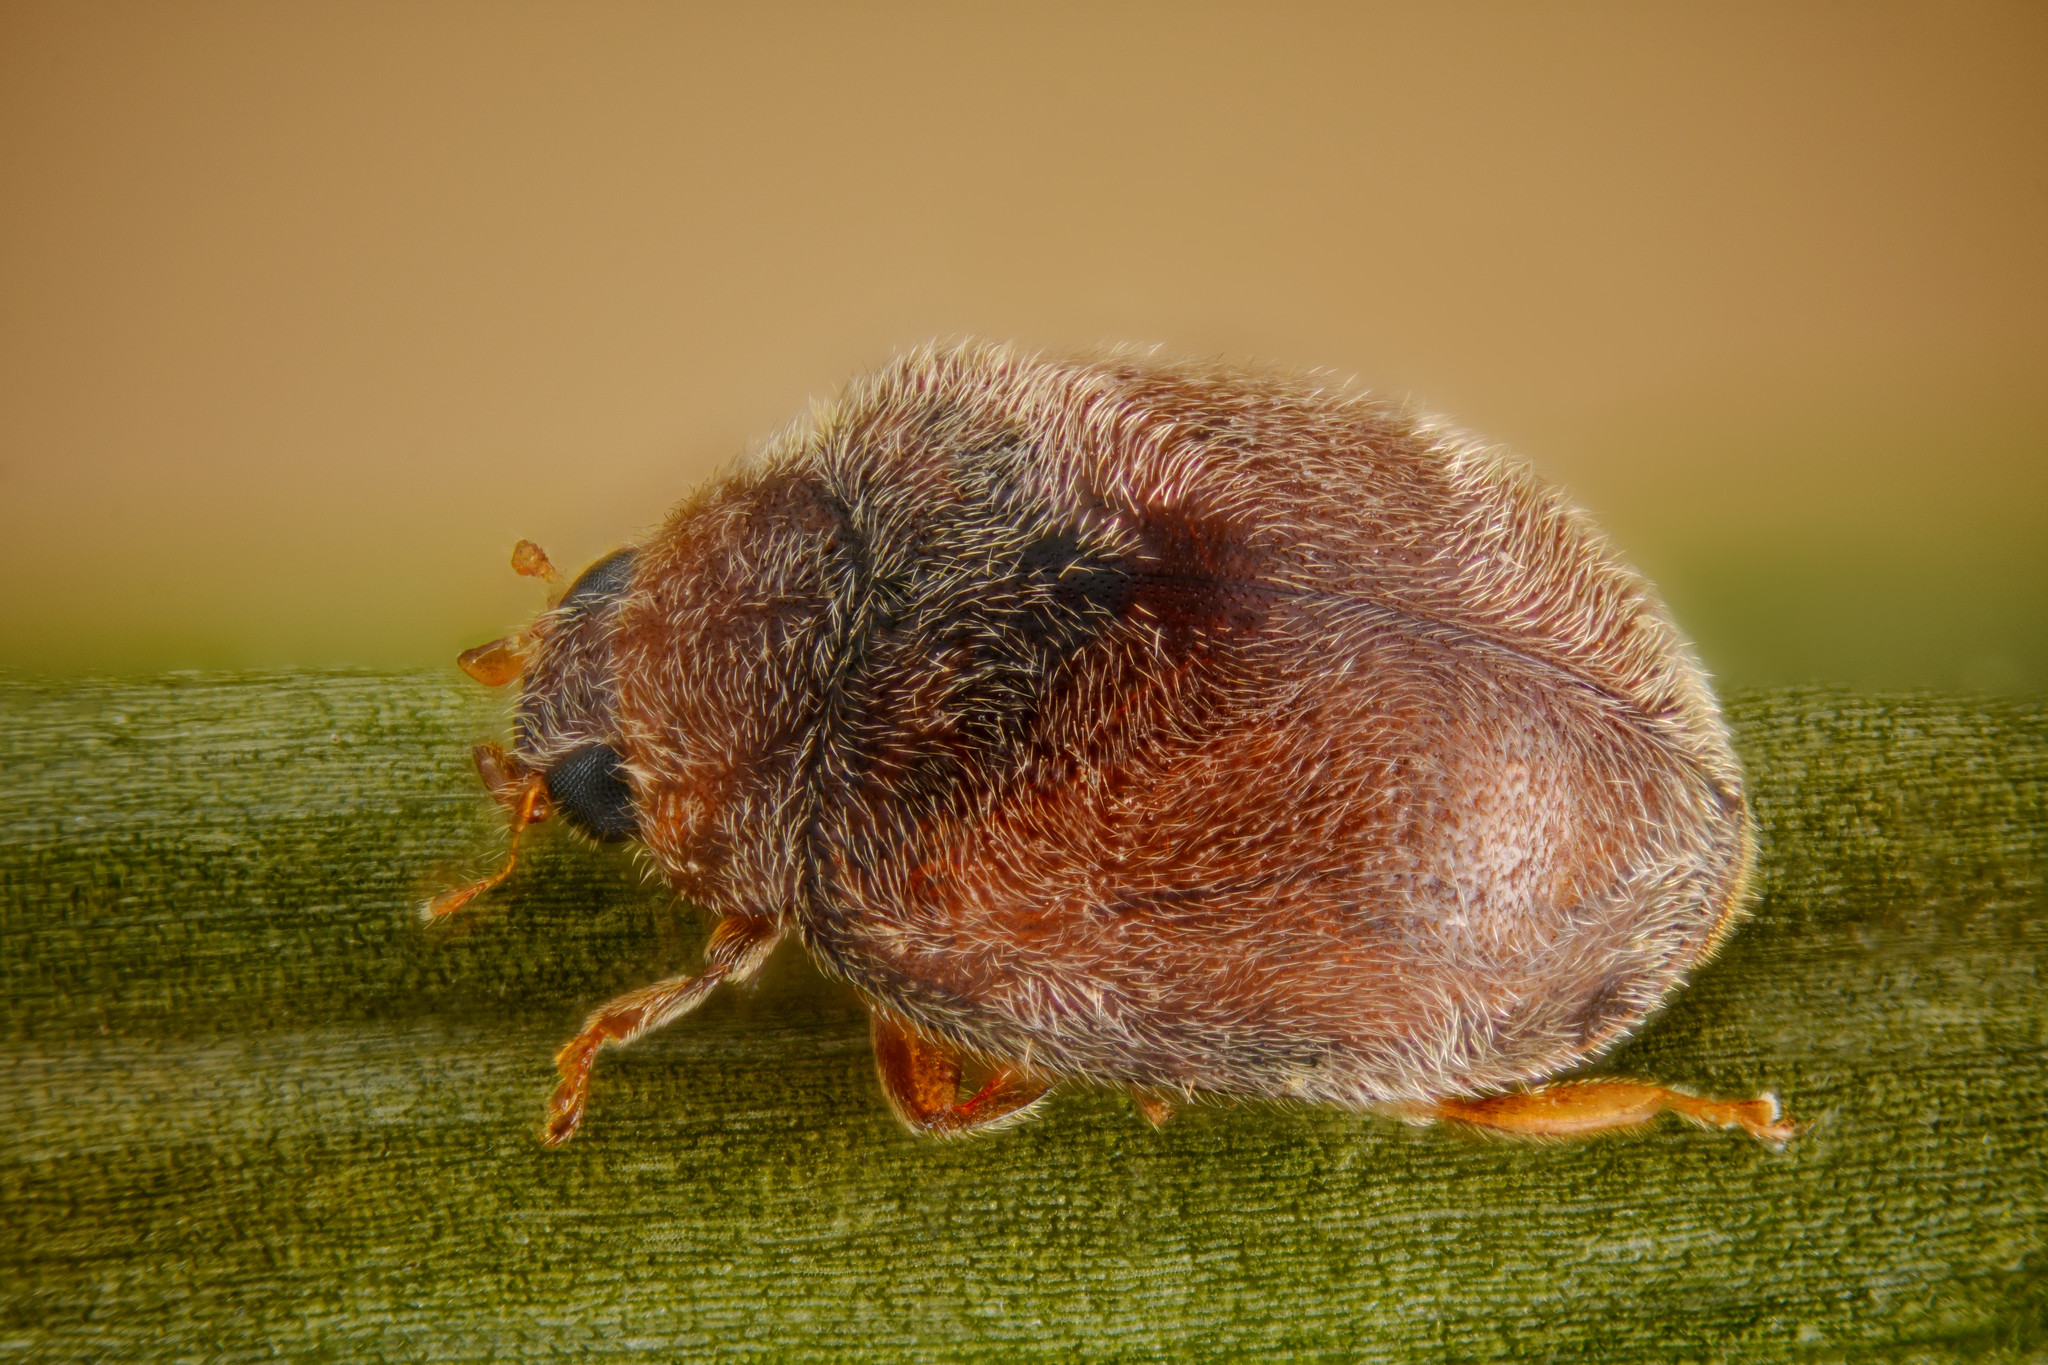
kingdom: Animalia
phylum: Arthropoda
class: Insecta
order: Coleoptera
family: Coccinellidae
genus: Scymnus
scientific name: Scymnus impexus
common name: Ladybird beetle
